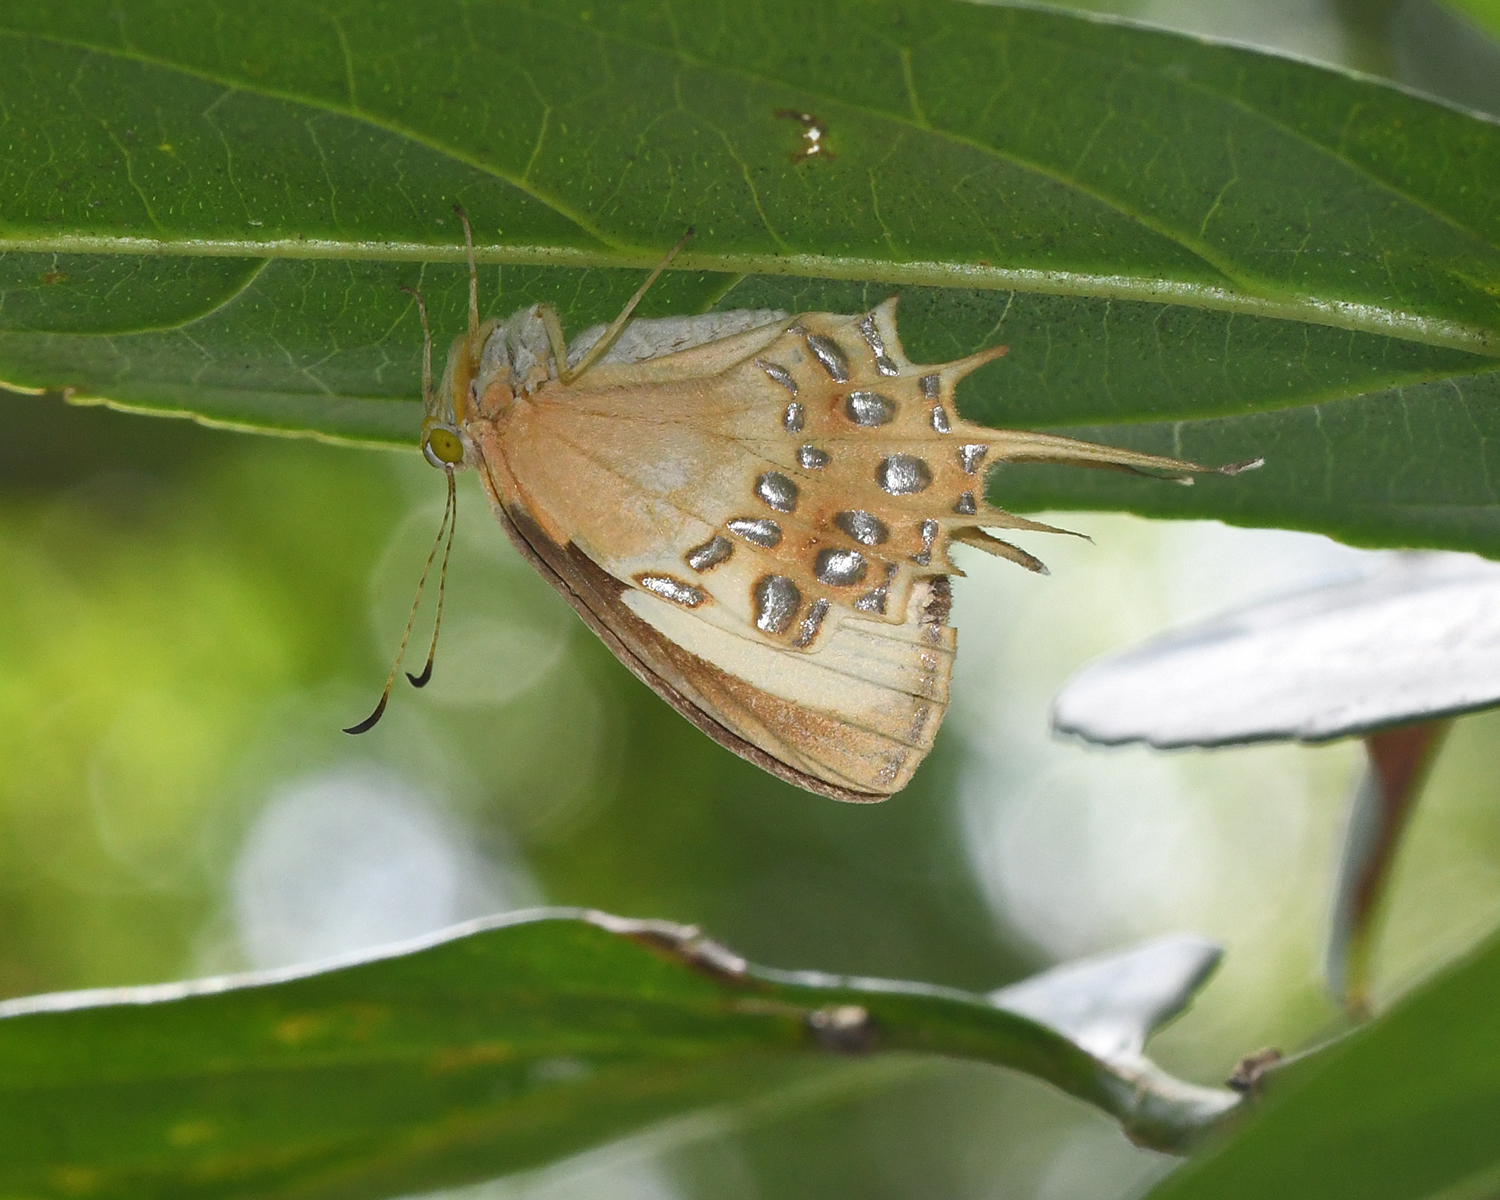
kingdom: Animalia
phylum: Arthropoda
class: Insecta
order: Lepidoptera
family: Riodinidae
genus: Helicopis
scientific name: Helicopis cupido
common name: Spangled cupid
